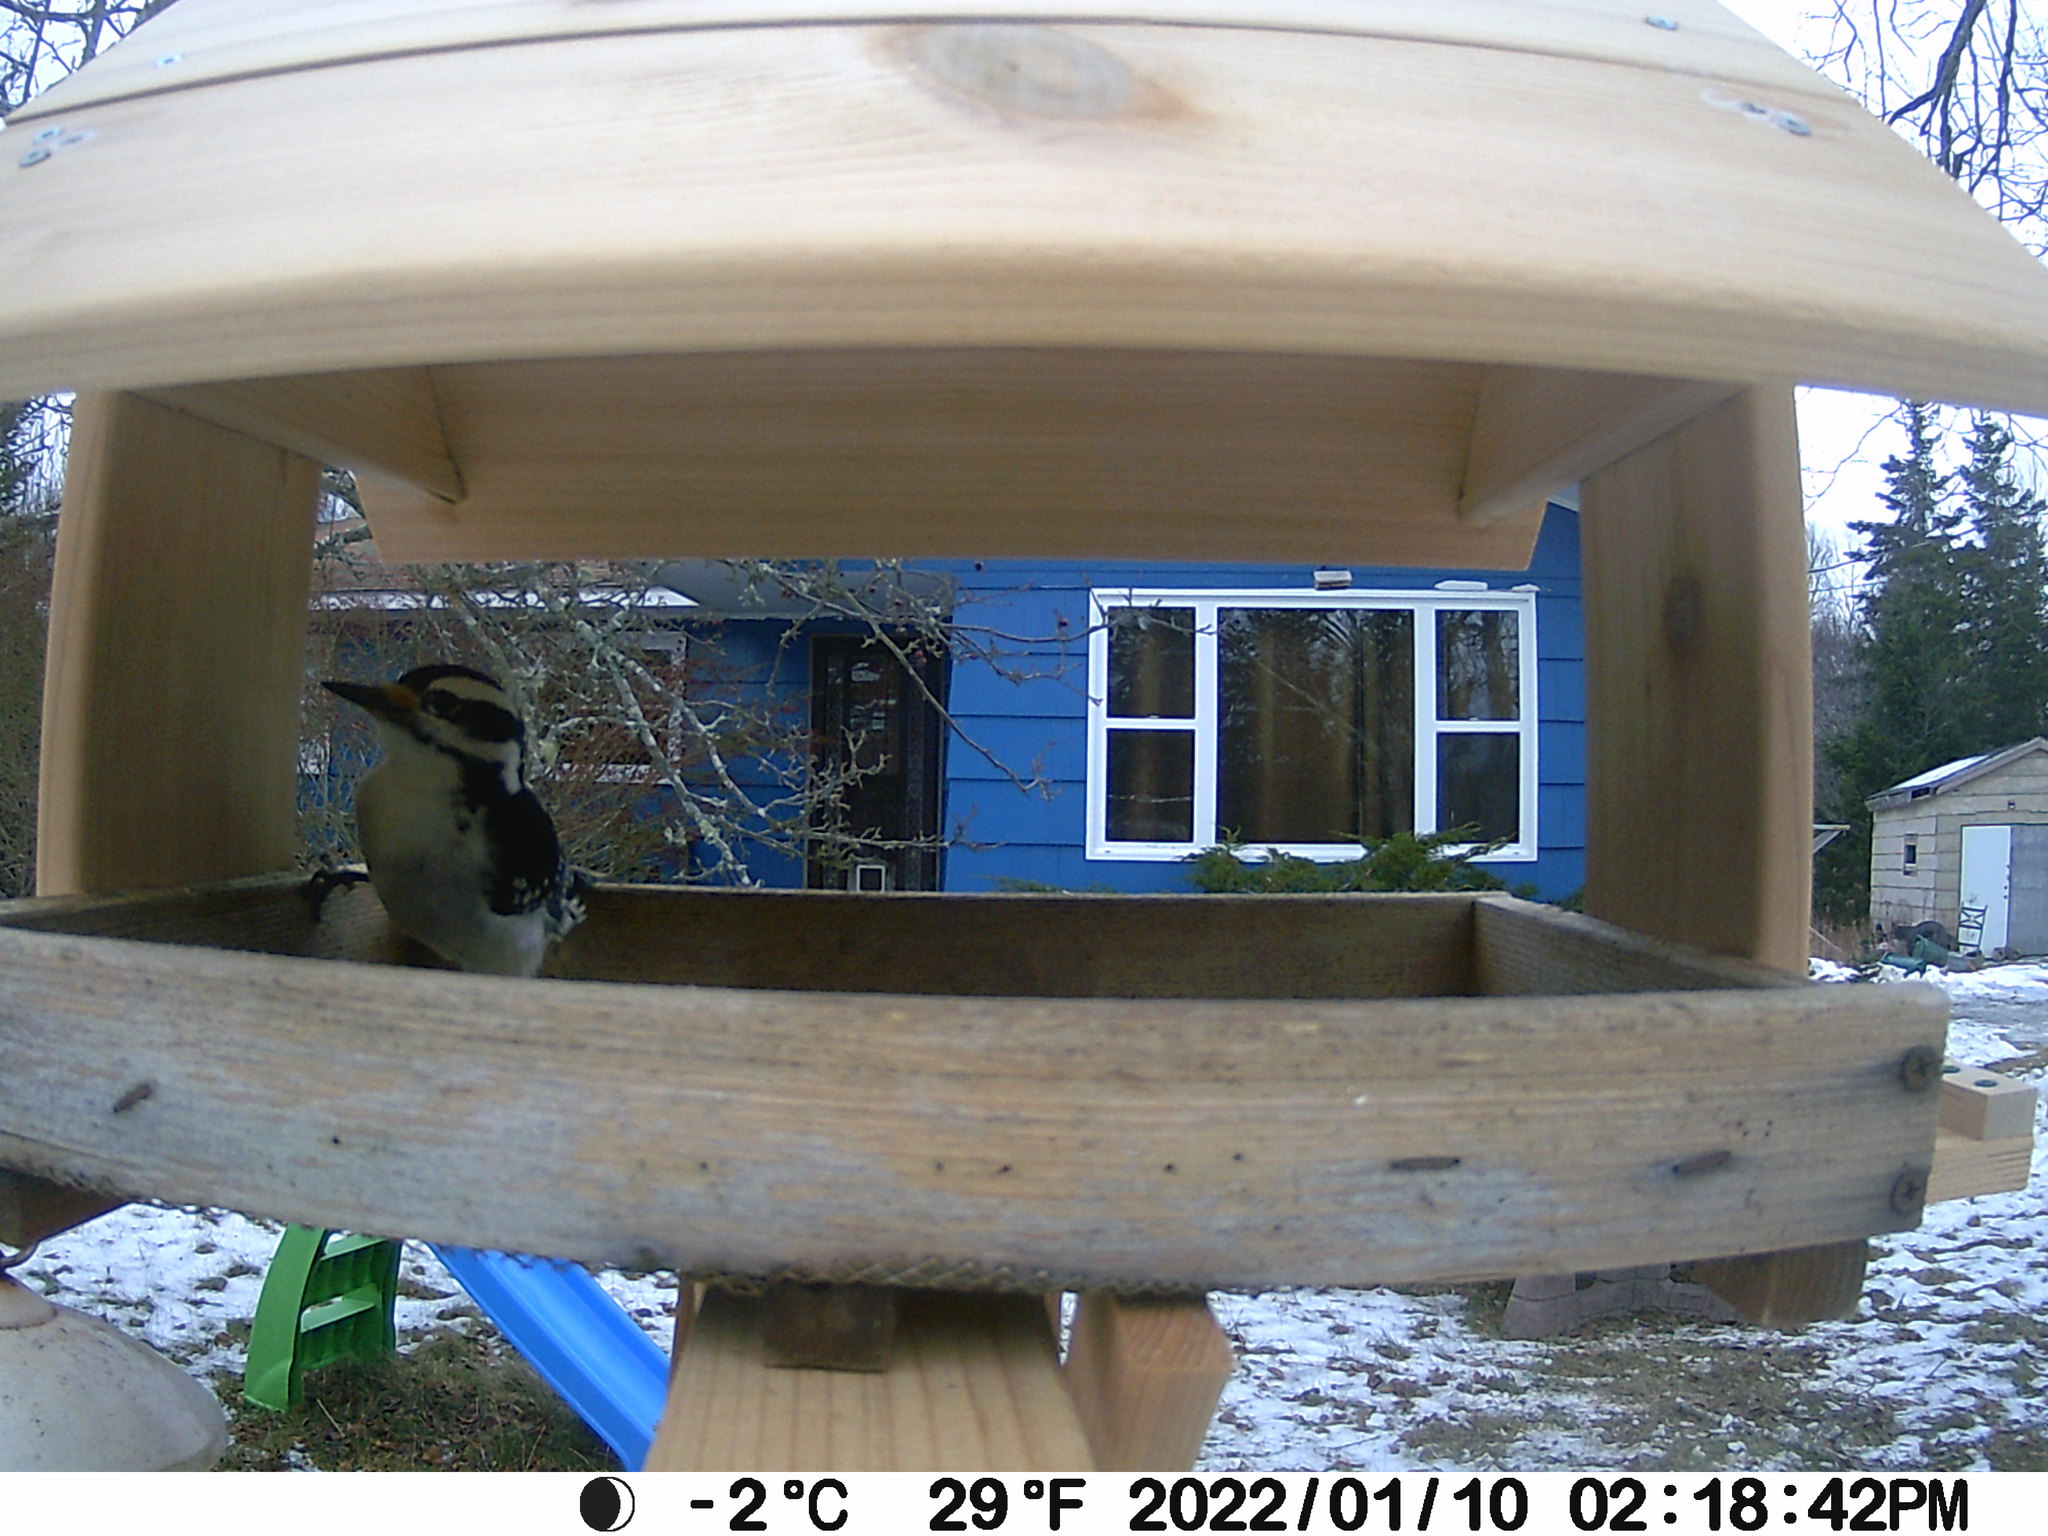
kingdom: Animalia
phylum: Chordata
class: Aves
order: Piciformes
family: Picidae
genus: Leuconotopicus
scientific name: Leuconotopicus villosus
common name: Hairy woodpecker
